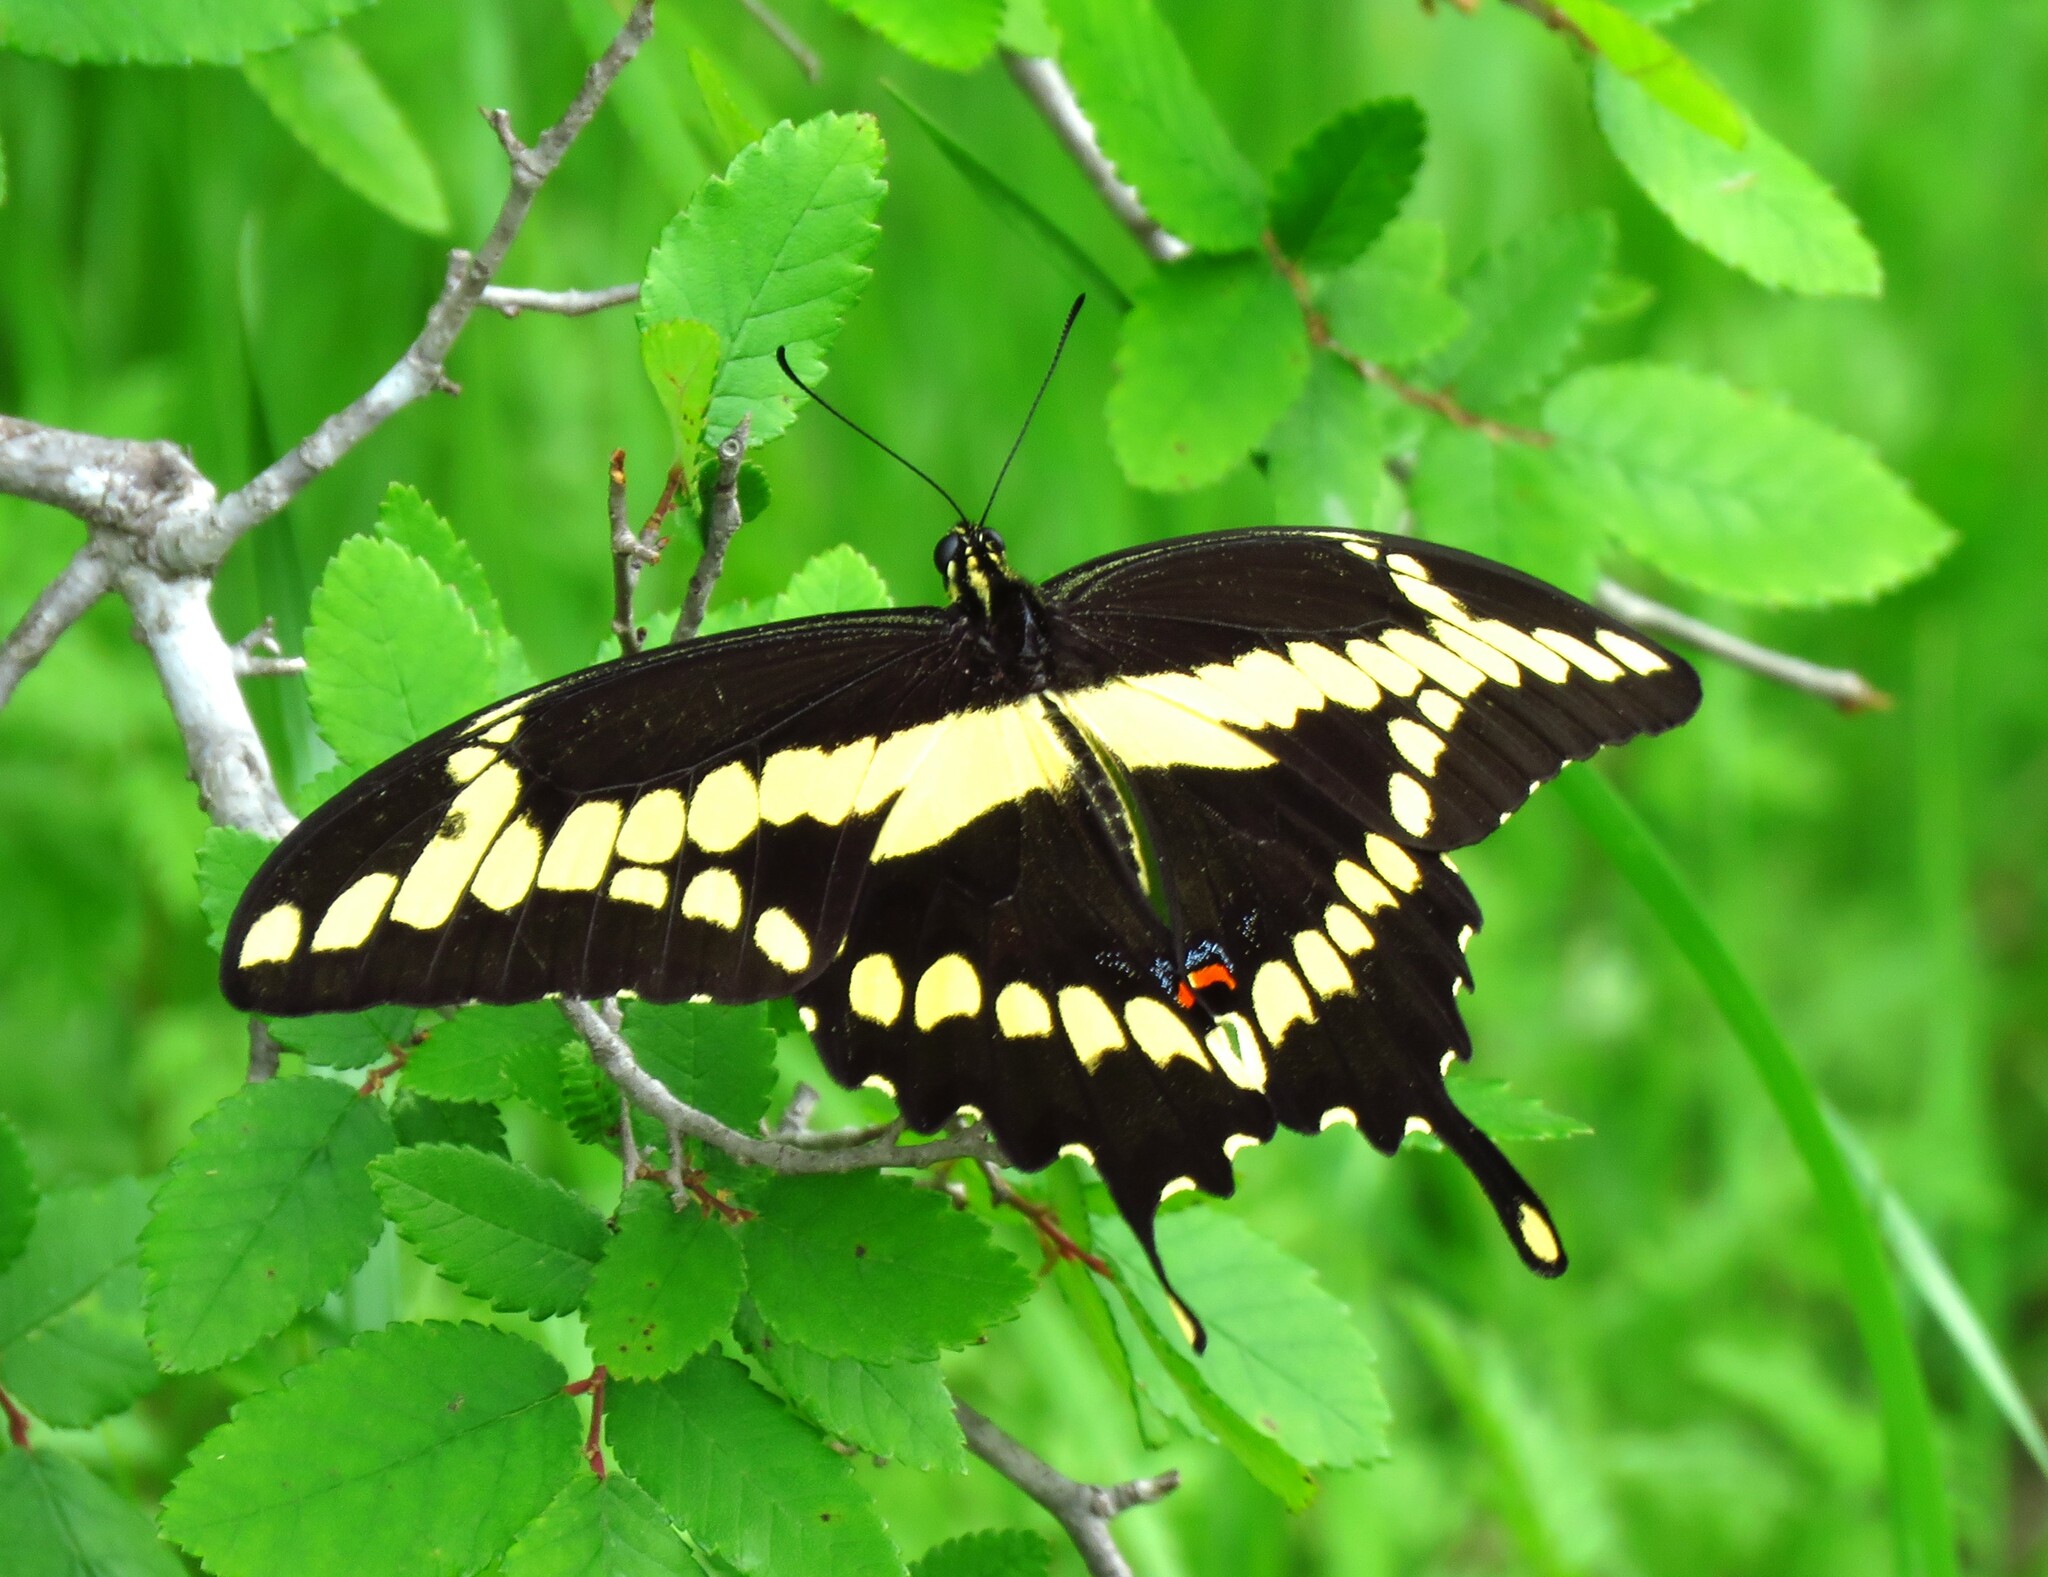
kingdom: Animalia
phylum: Arthropoda
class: Insecta
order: Lepidoptera
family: Papilionidae
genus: Papilio
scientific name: Papilio cresphontes
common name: Giant swallowtail
